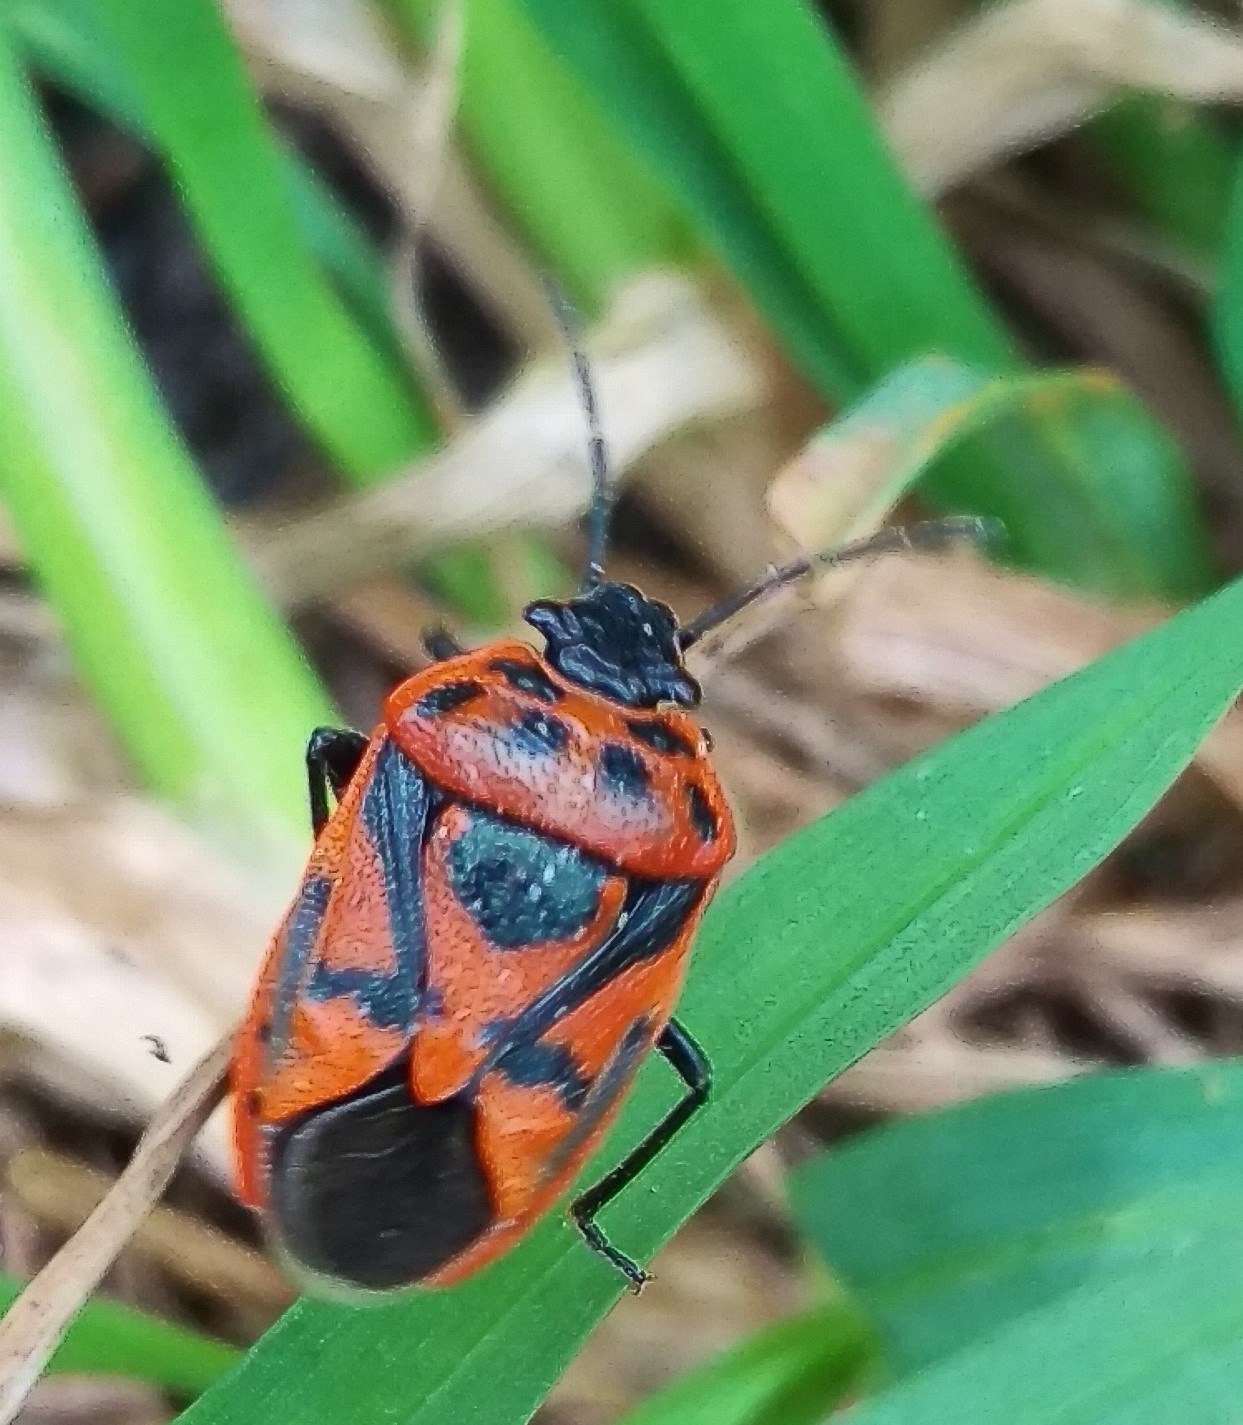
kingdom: Animalia
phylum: Arthropoda
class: Insecta
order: Hemiptera
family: Pentatomidae
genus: Eurydema
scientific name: Eurydema ornata
